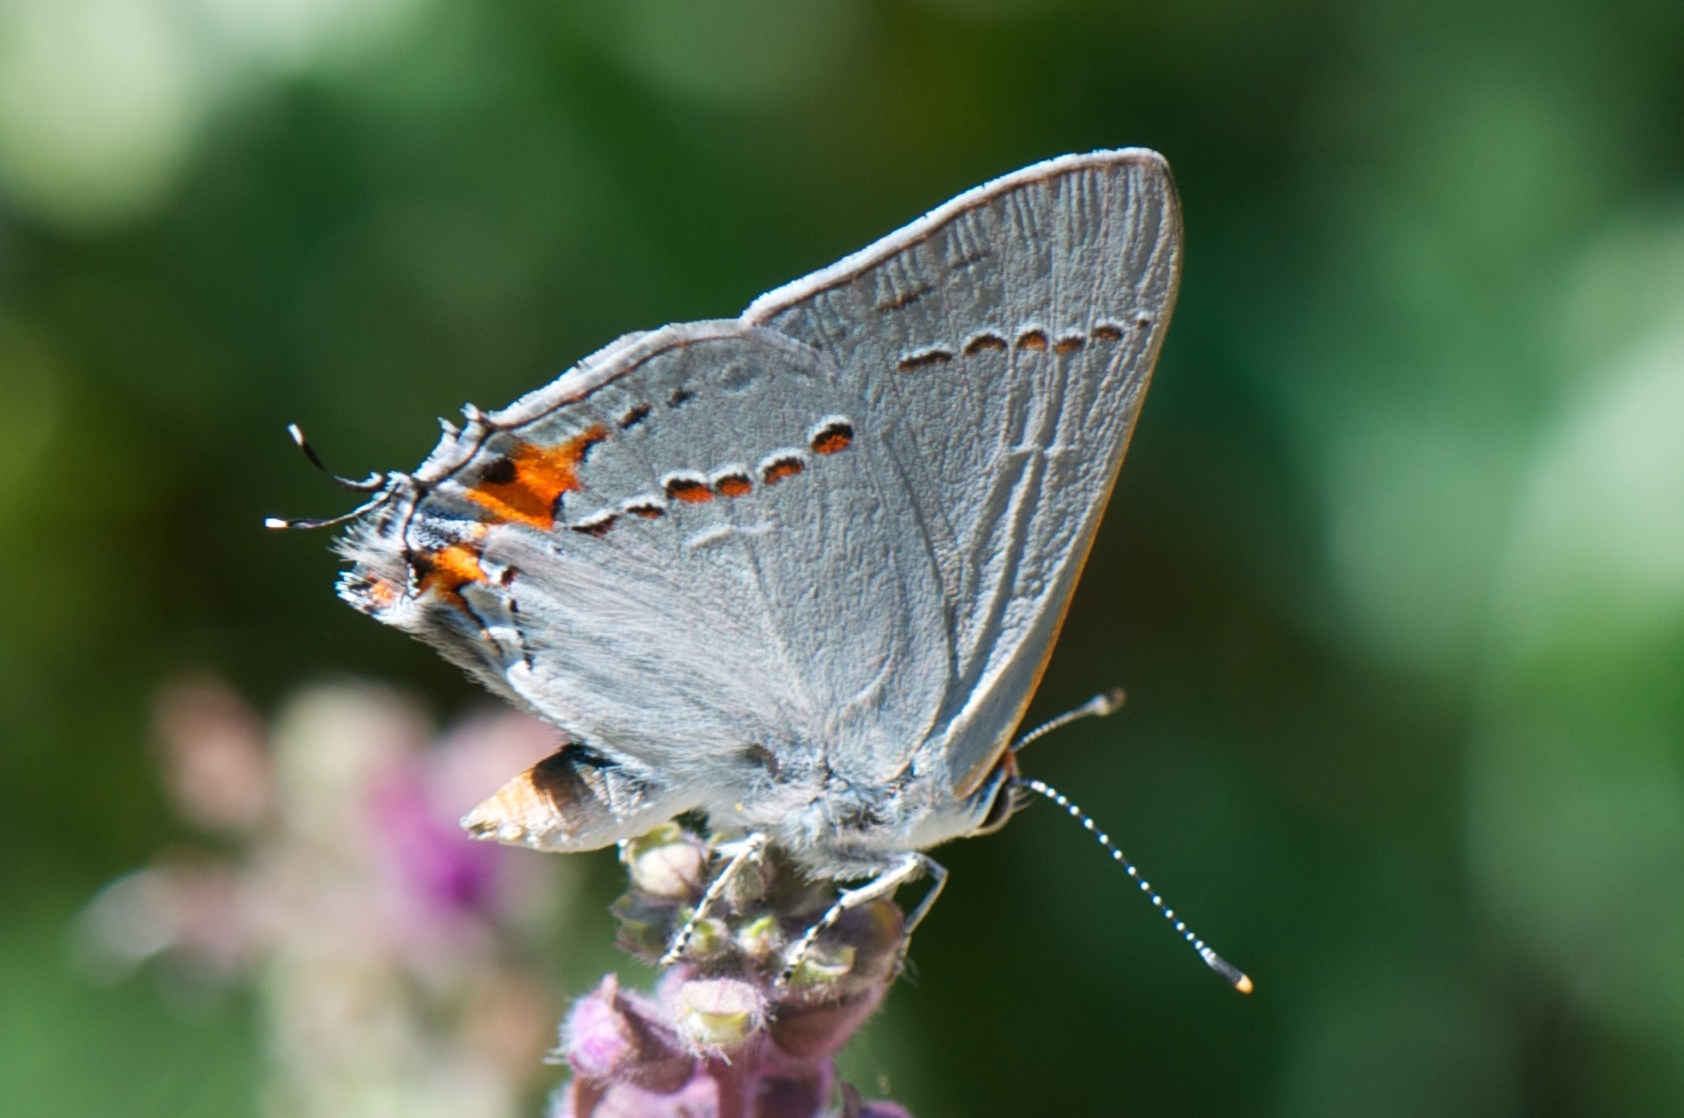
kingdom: Animalia
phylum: Arthropoda
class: Insecta
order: Lepidoptera
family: Lycaenidae
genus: Strymon
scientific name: Strymon melinus
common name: Gray hairstreak
